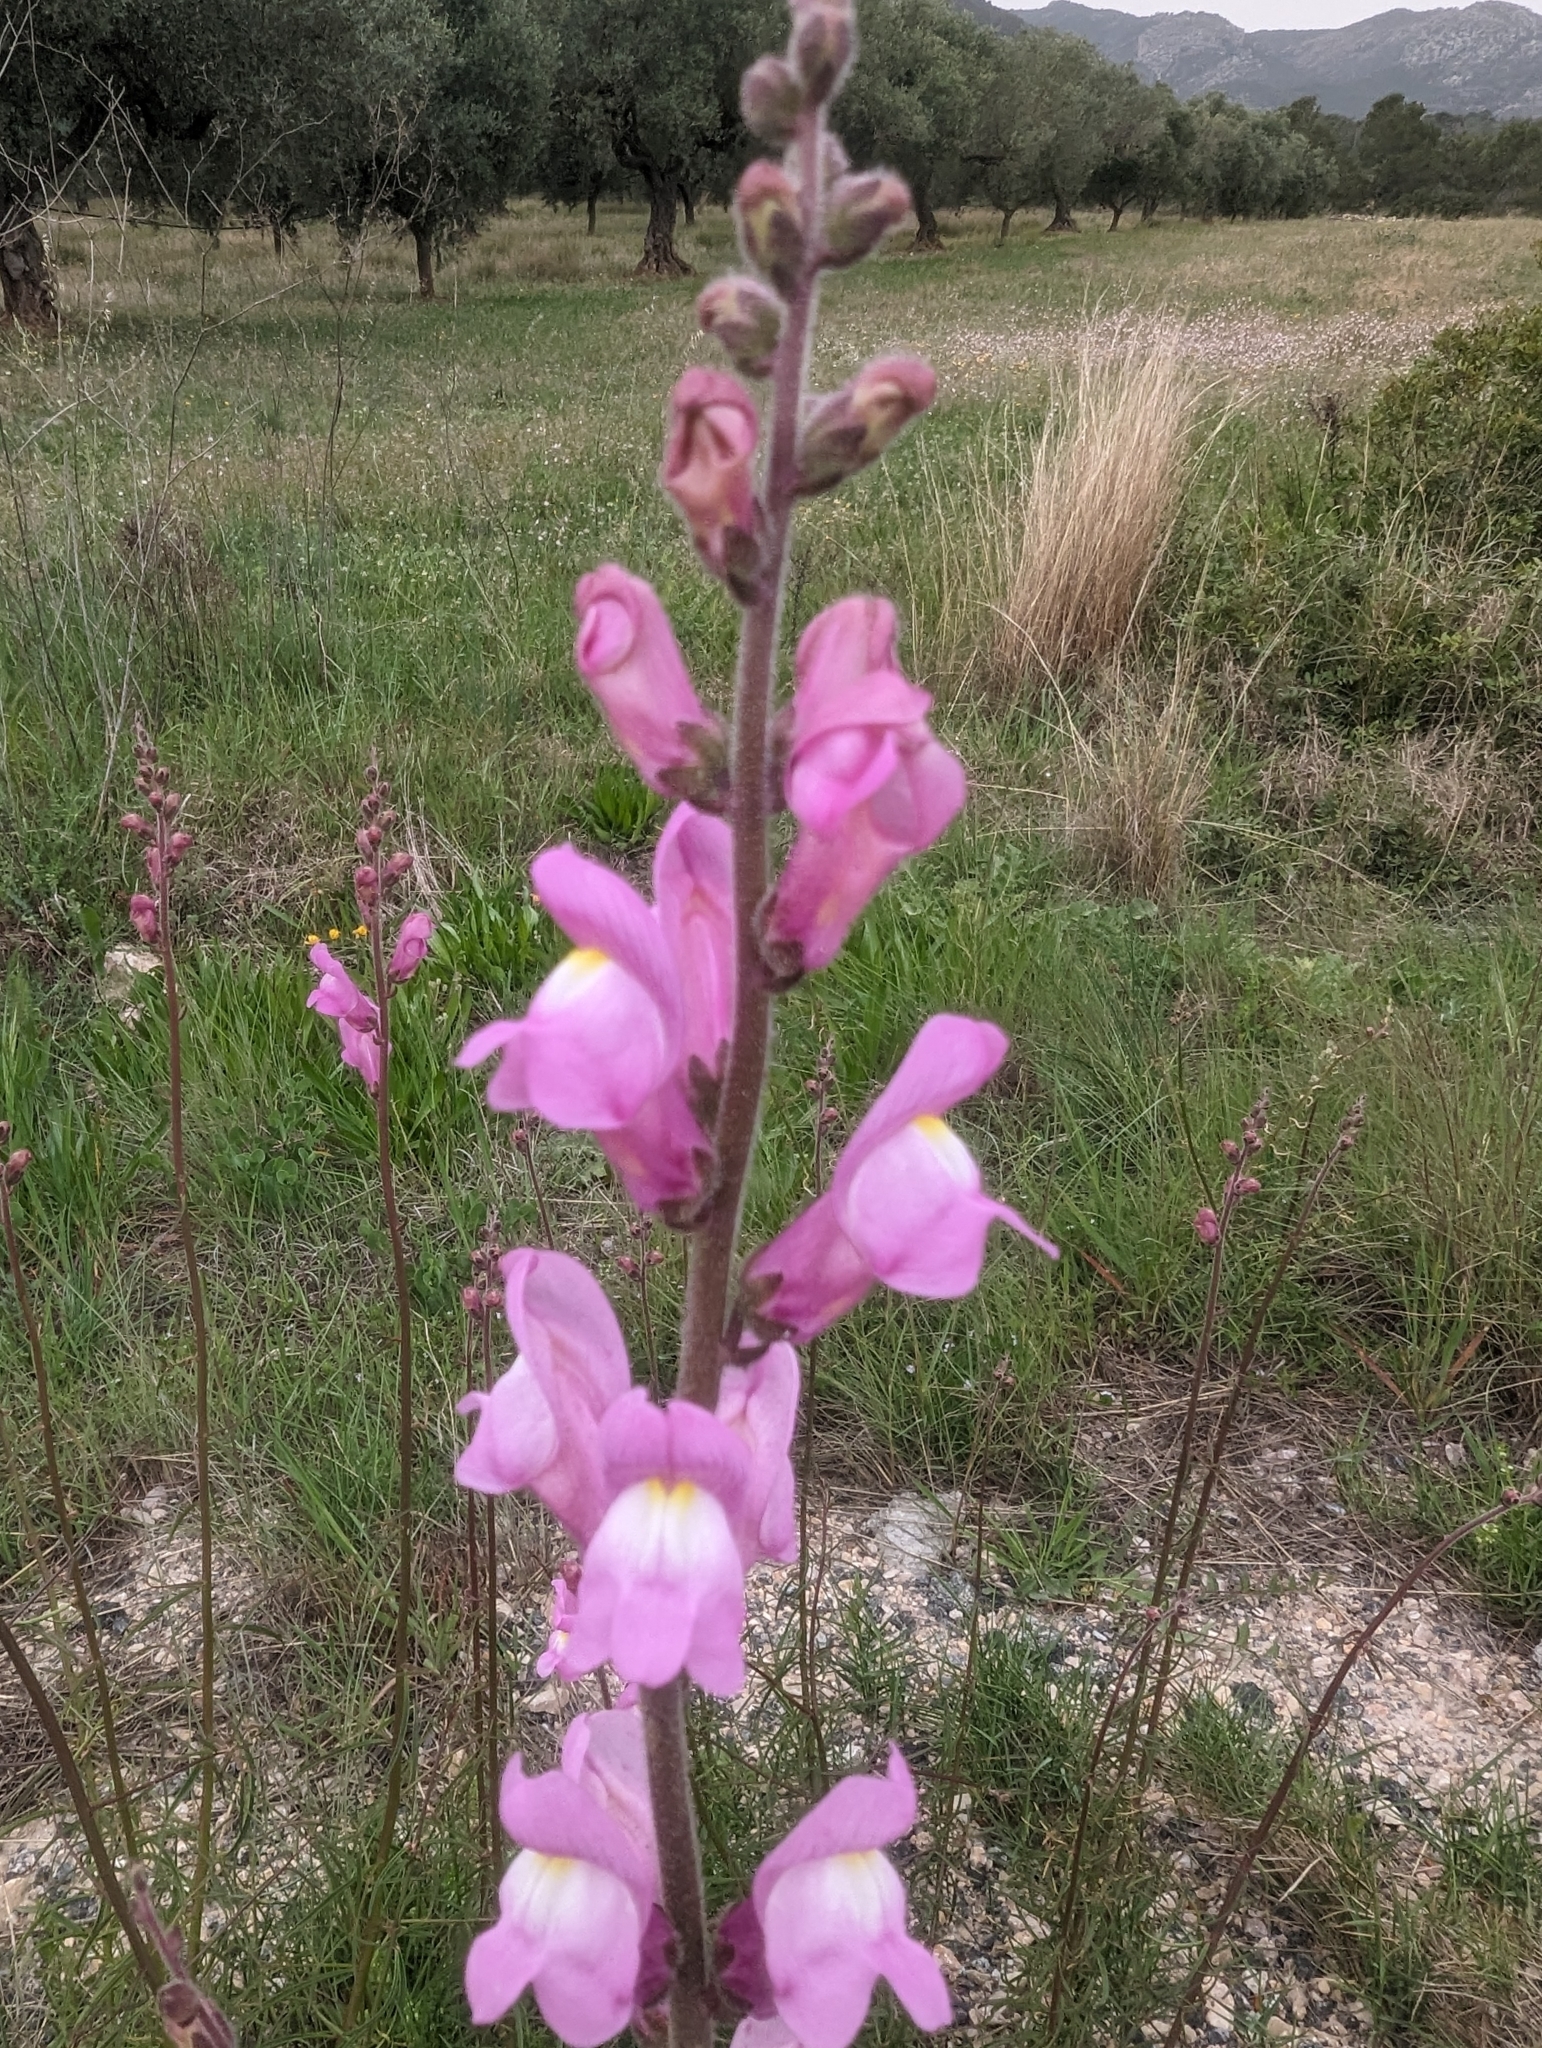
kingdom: Plantae
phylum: Tracheophyta
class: Magnoliopsida
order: Lamiales
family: Plantaginaceae
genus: Antirrhinum
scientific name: Antirrhinum litigiosum
